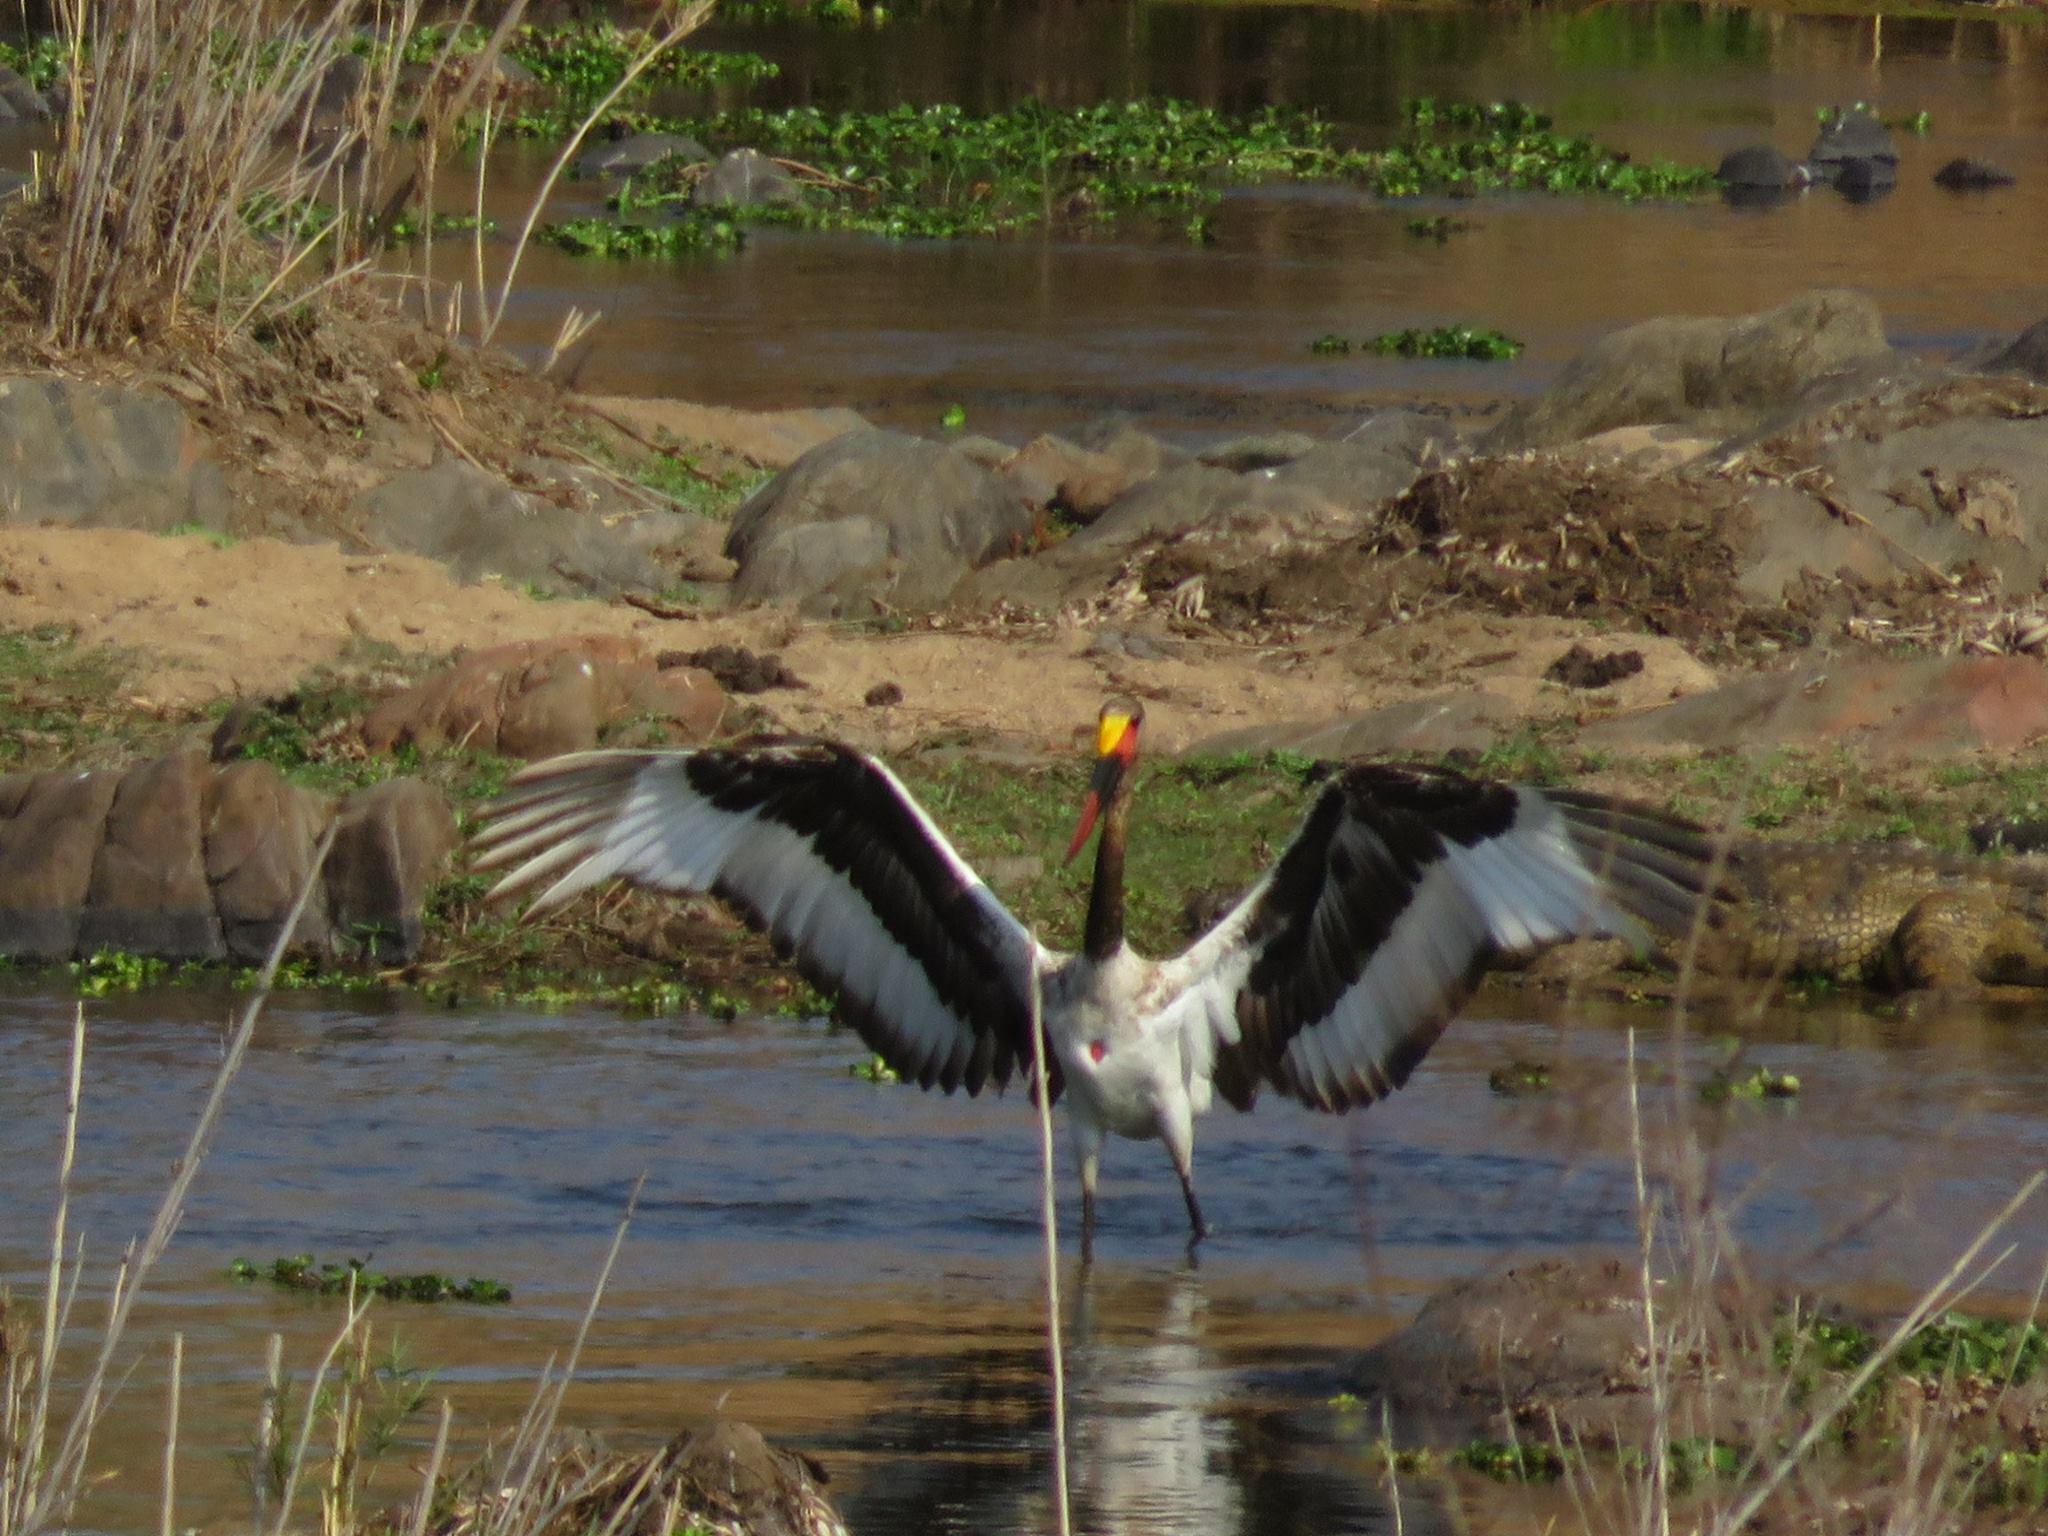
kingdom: Animalia
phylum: Chordata
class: Aves
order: Ciconiiformes
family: Ciconiidae
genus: Ephippiorhynchus
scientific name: Ephippiorhynchus senegalensis
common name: Saddle-billed stork
